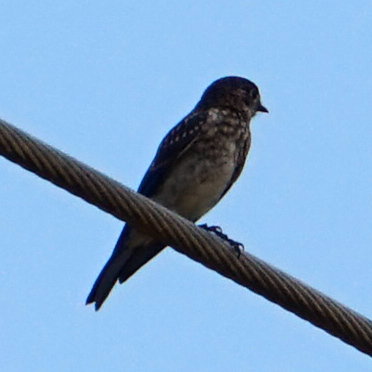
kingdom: Animalia
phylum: Chordata
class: Aves
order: Passeriformes
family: Turdidae
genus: Sialia
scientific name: Sialia sialis
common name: Eastern bluebird
